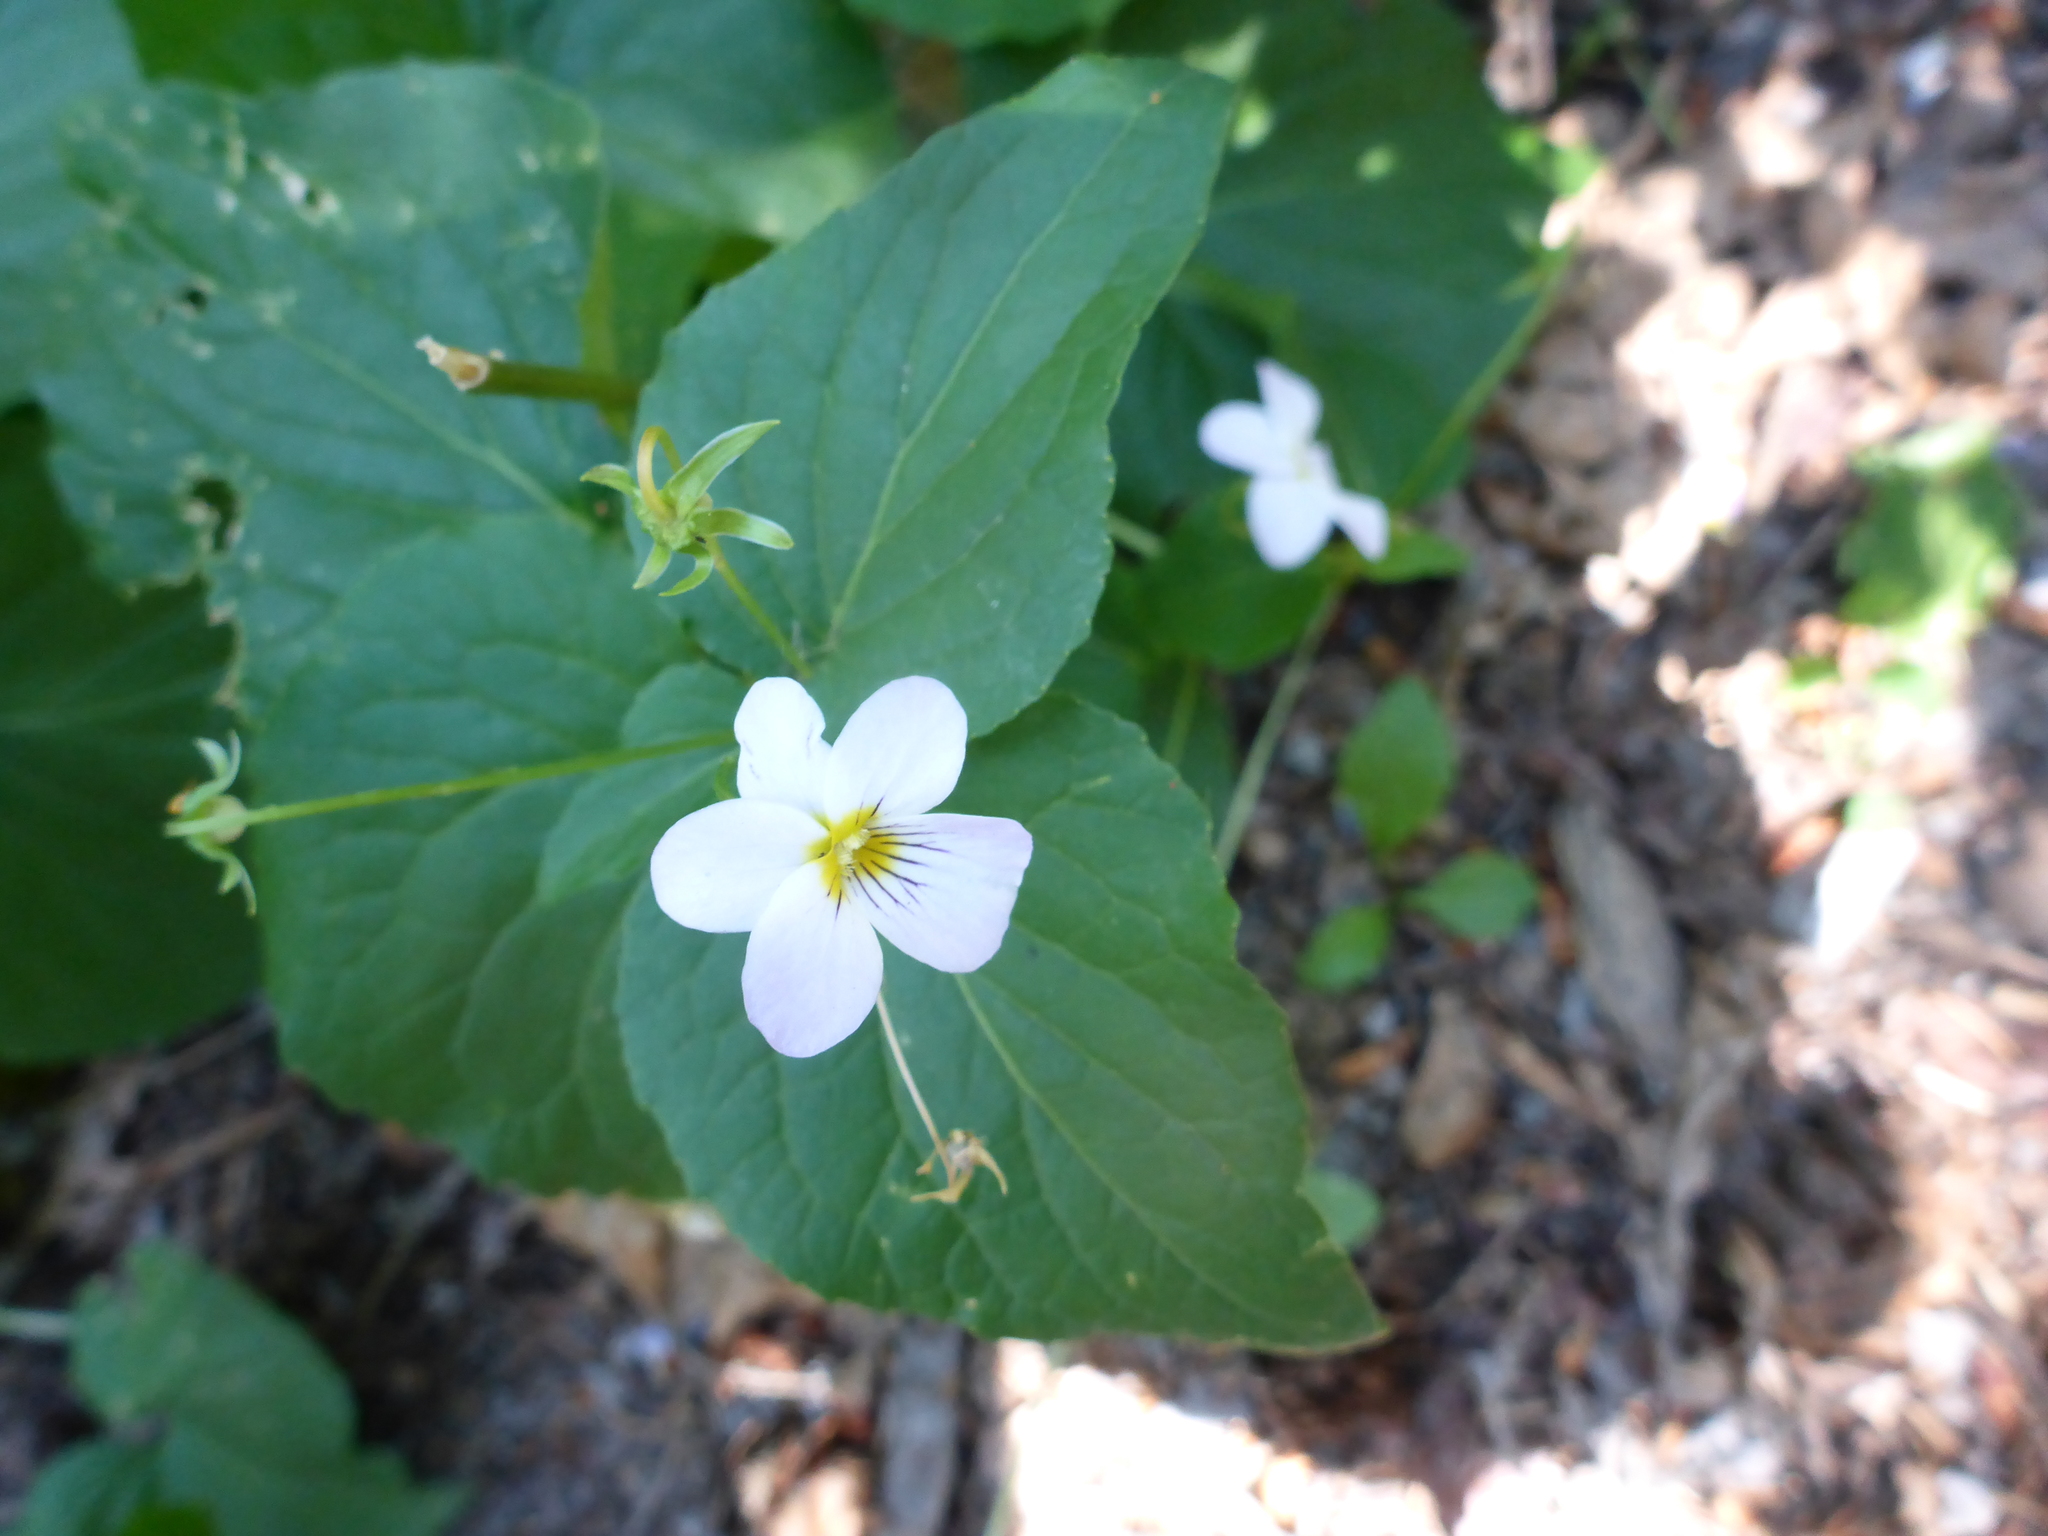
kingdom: Plantae
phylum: Tracheophyta
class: Magnoliopsida
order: Malpighiales
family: Violaceae
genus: Viola
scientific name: Viola canadensis
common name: Canada violet
